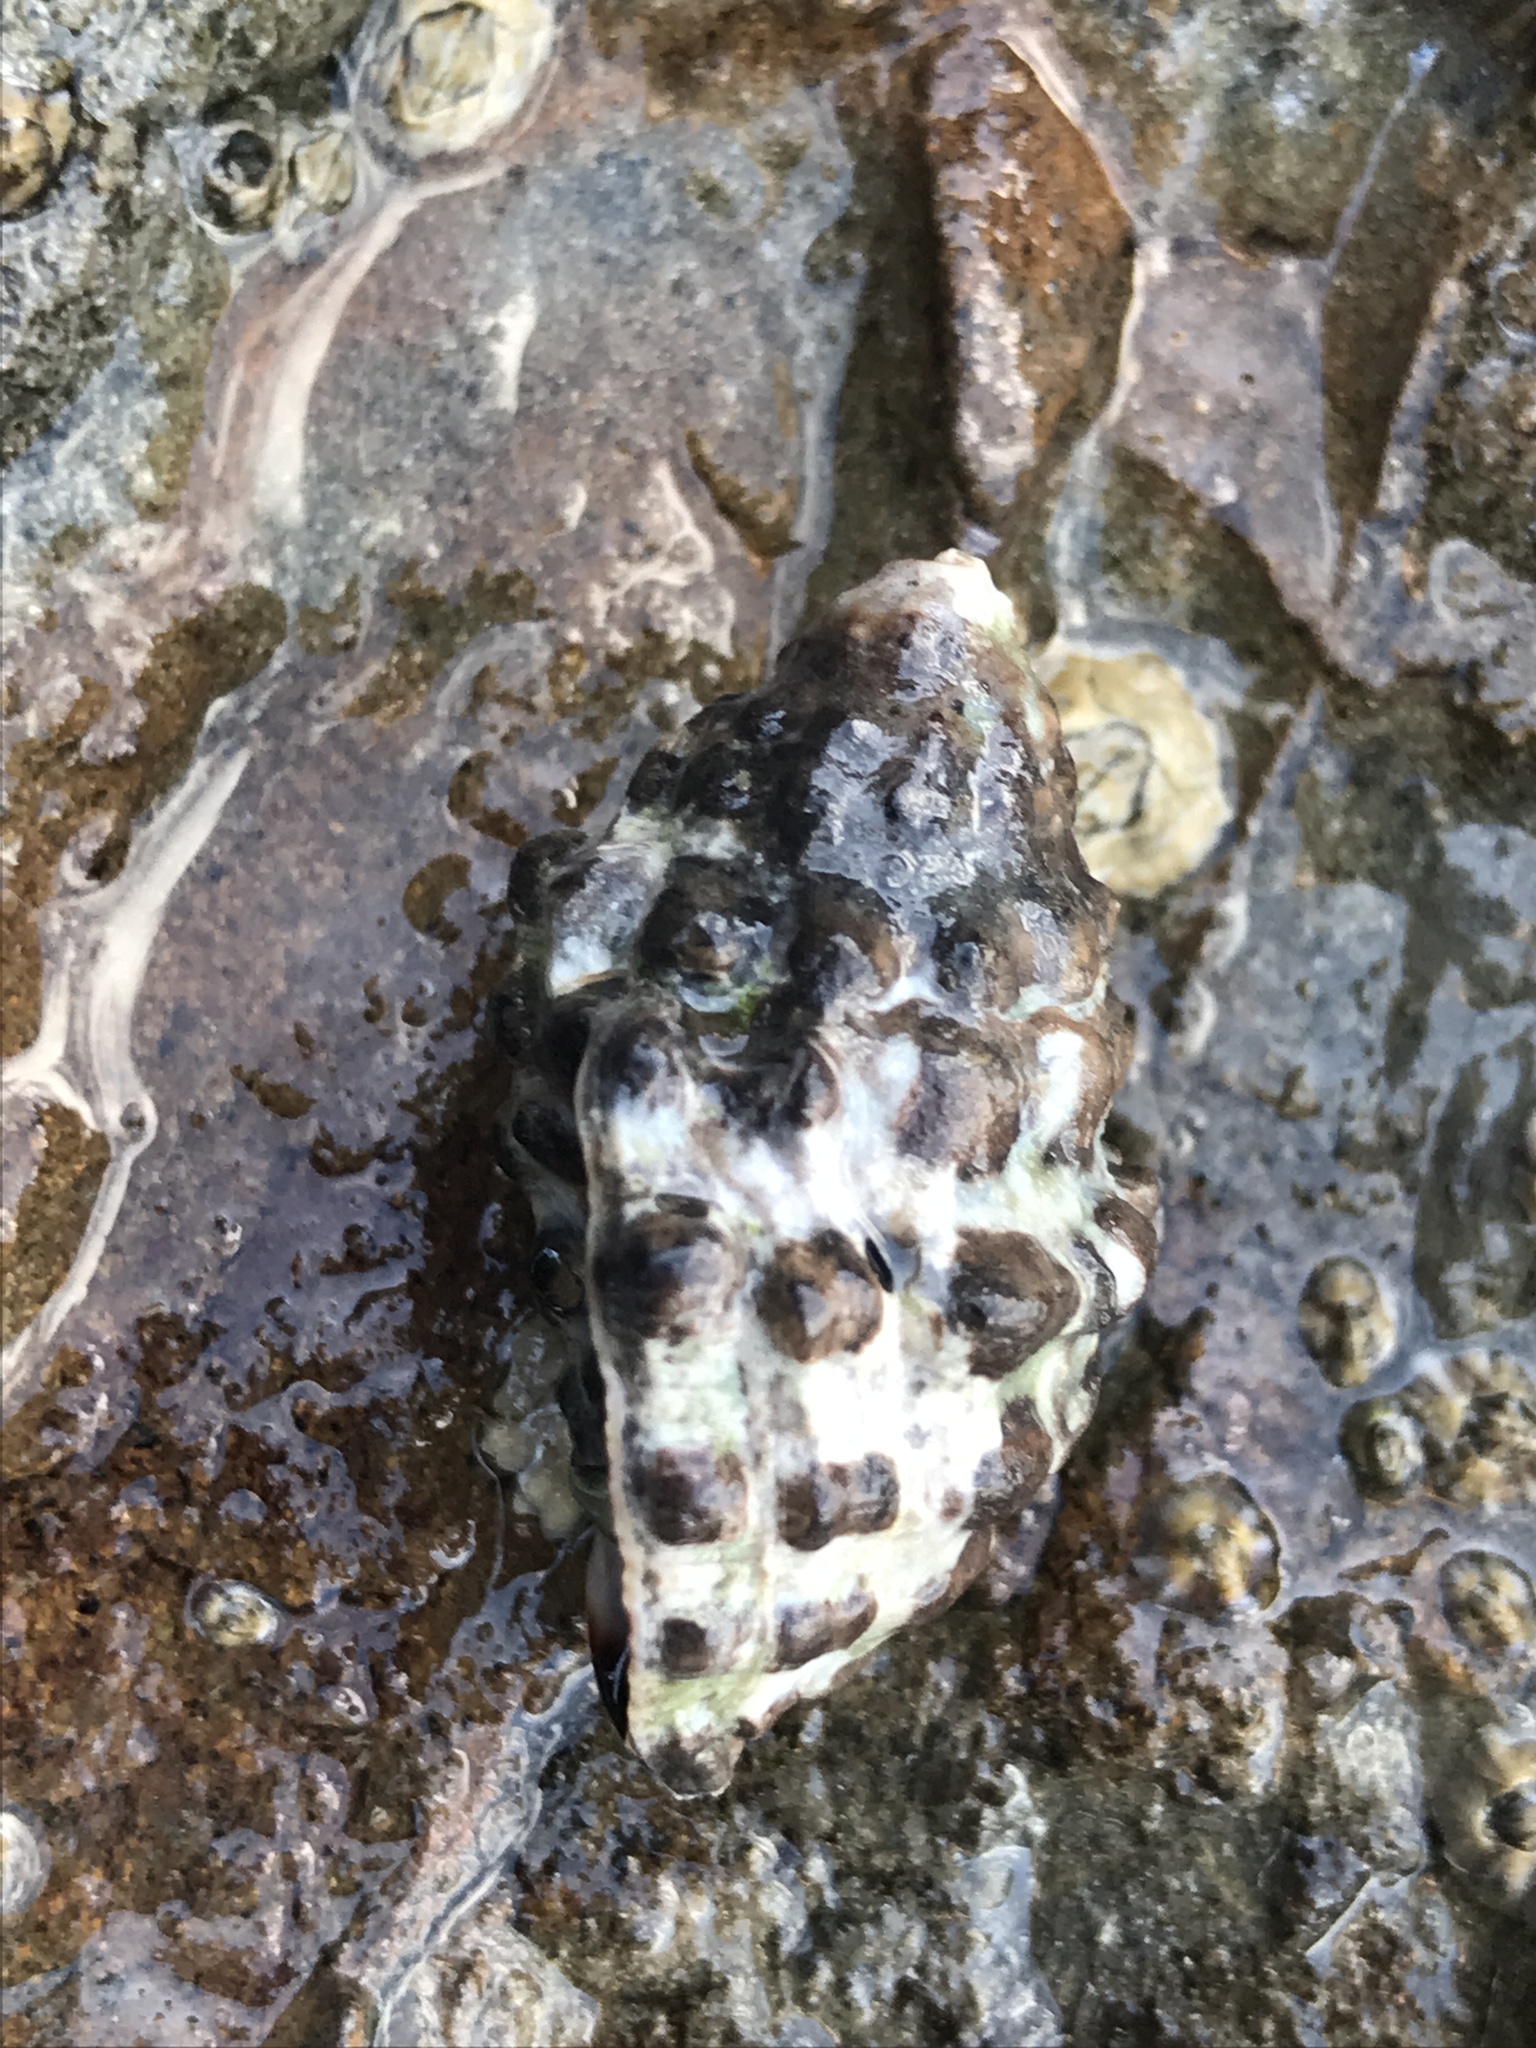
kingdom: Animalia
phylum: Mollusca
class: Gastropoda
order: Neogastropoda
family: Muricidae
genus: Tenguella
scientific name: Tenguella marginalba
